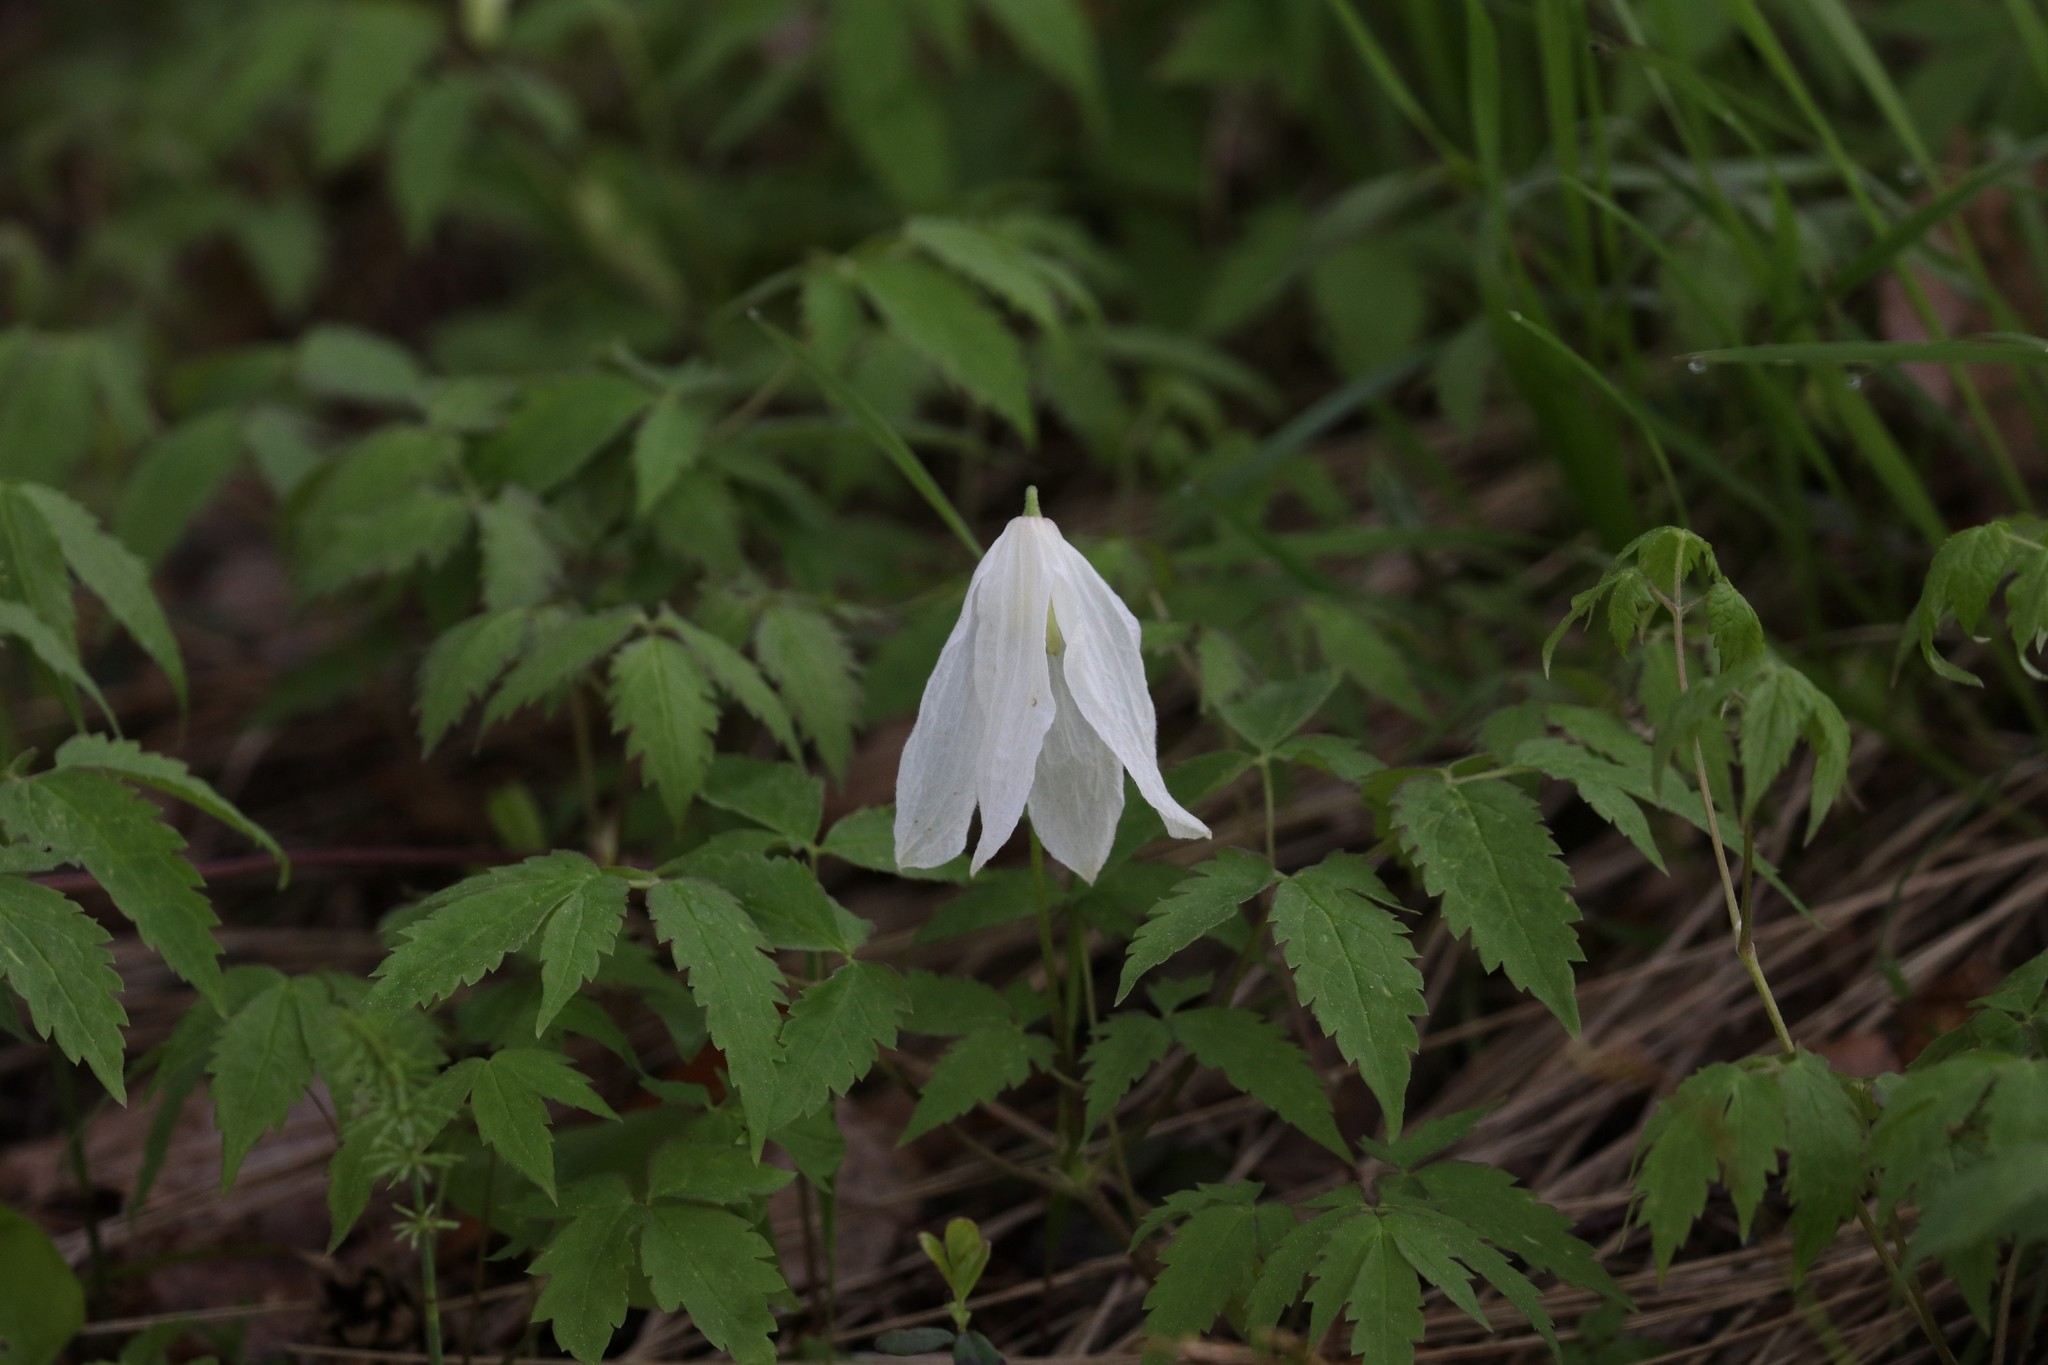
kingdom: Plantae
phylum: Tracheophyta
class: Magnoliopsida
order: Ranunculales
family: Ranunculaceae
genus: Clematis
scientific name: Clematis sibirica
